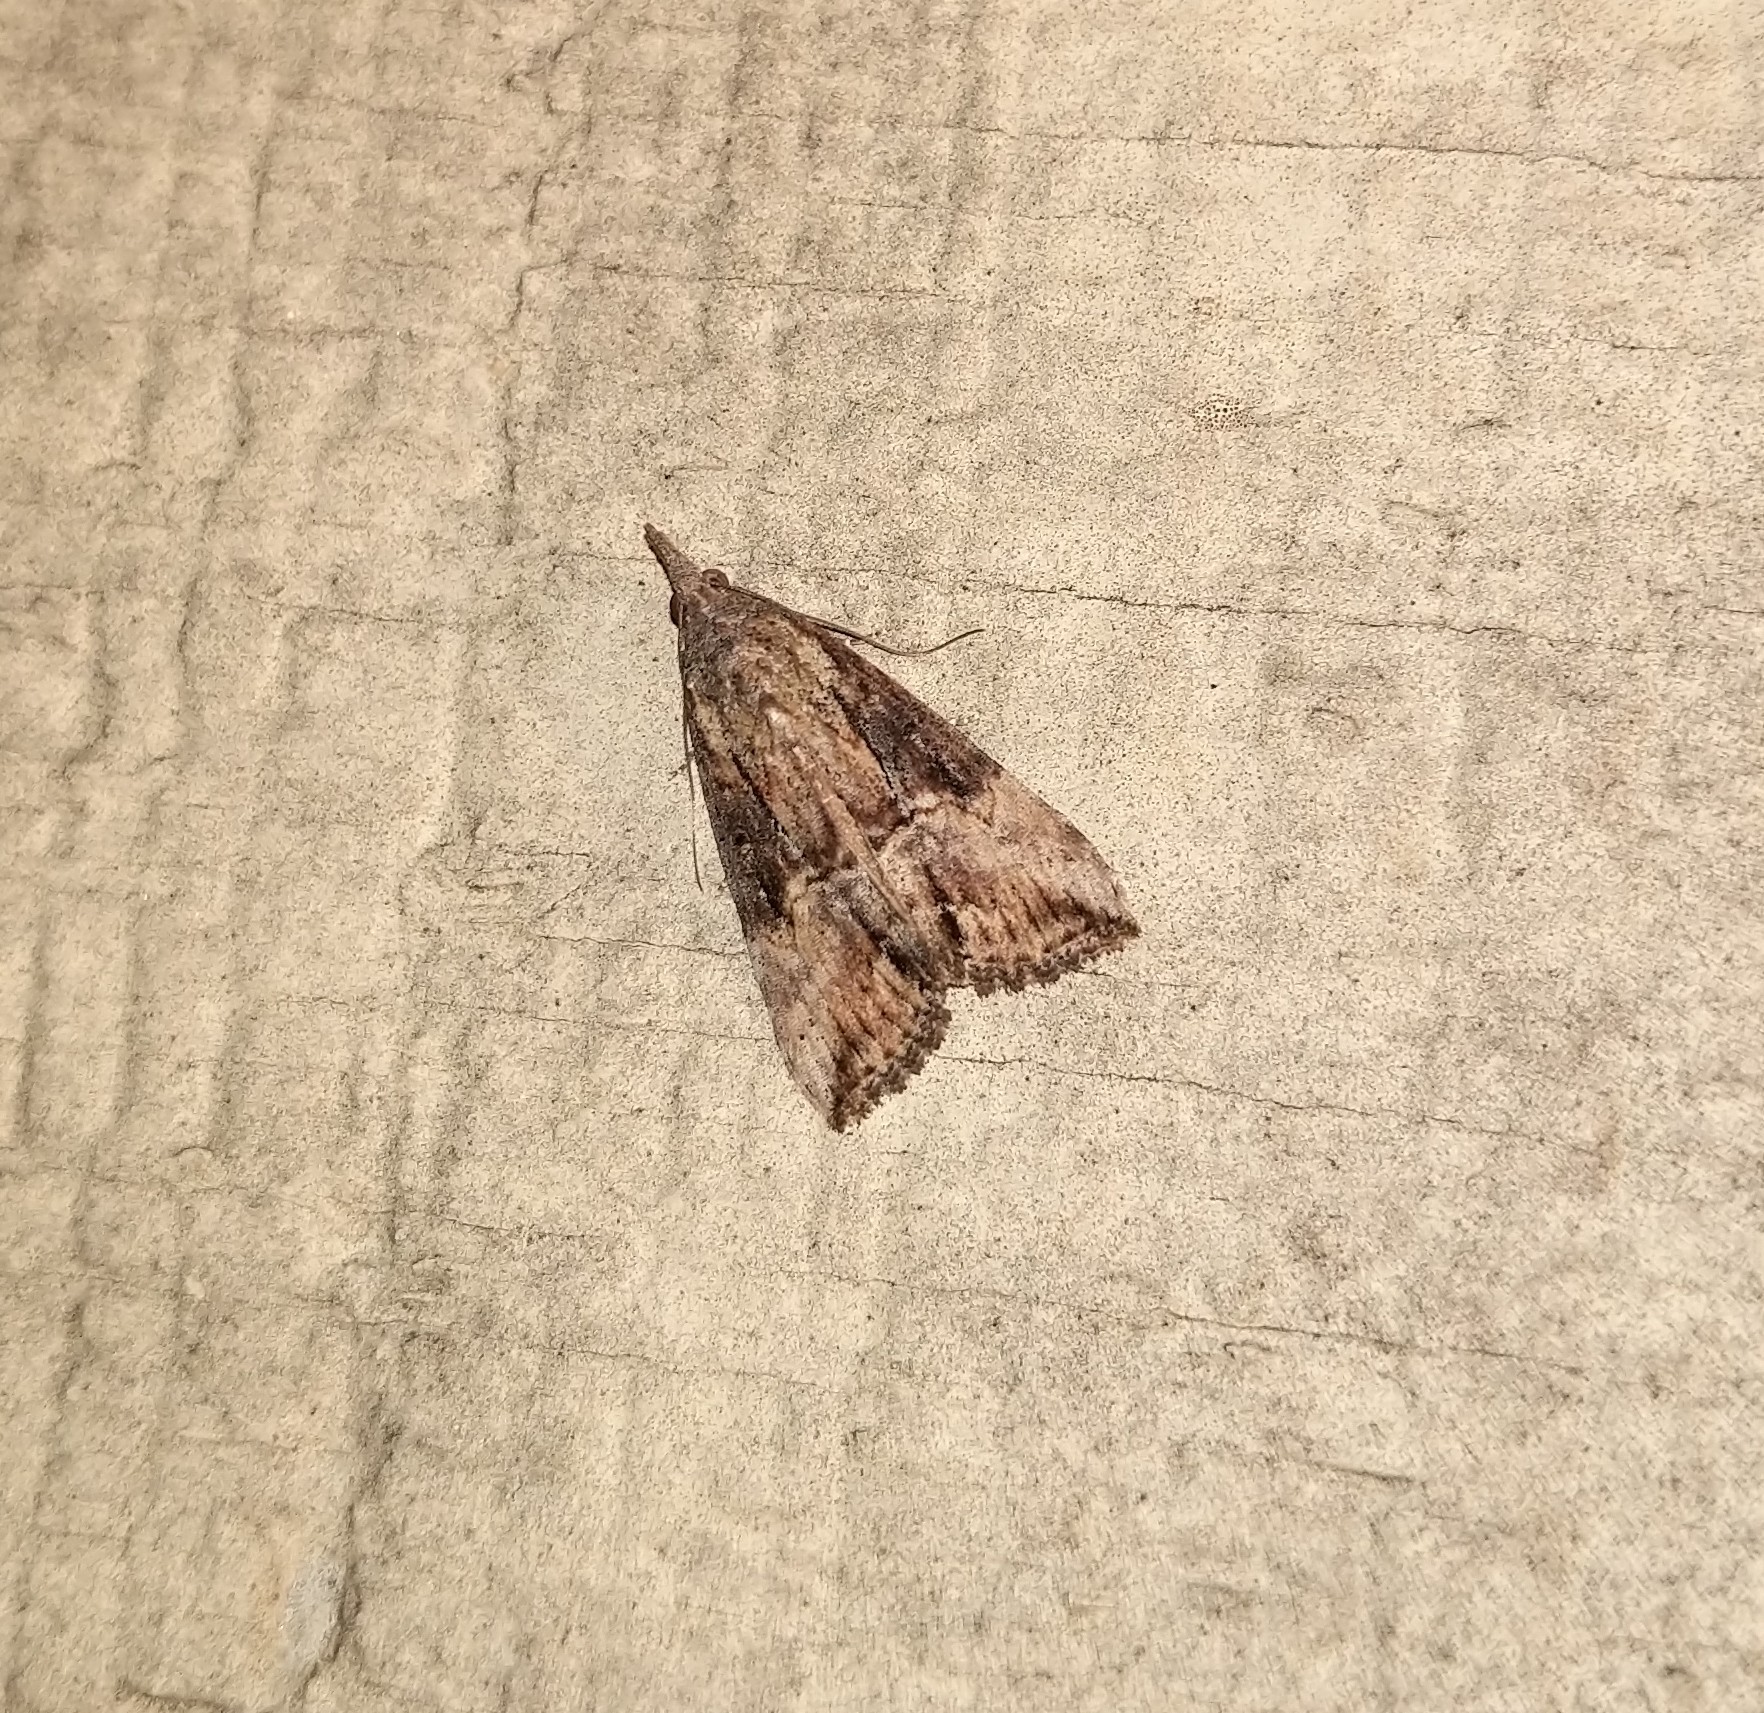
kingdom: Animalia
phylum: Arthropoda
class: Insecta
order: Lepidoptera
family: Erebidae
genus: Hypena
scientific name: Hypena scabra
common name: Green cloverworm
